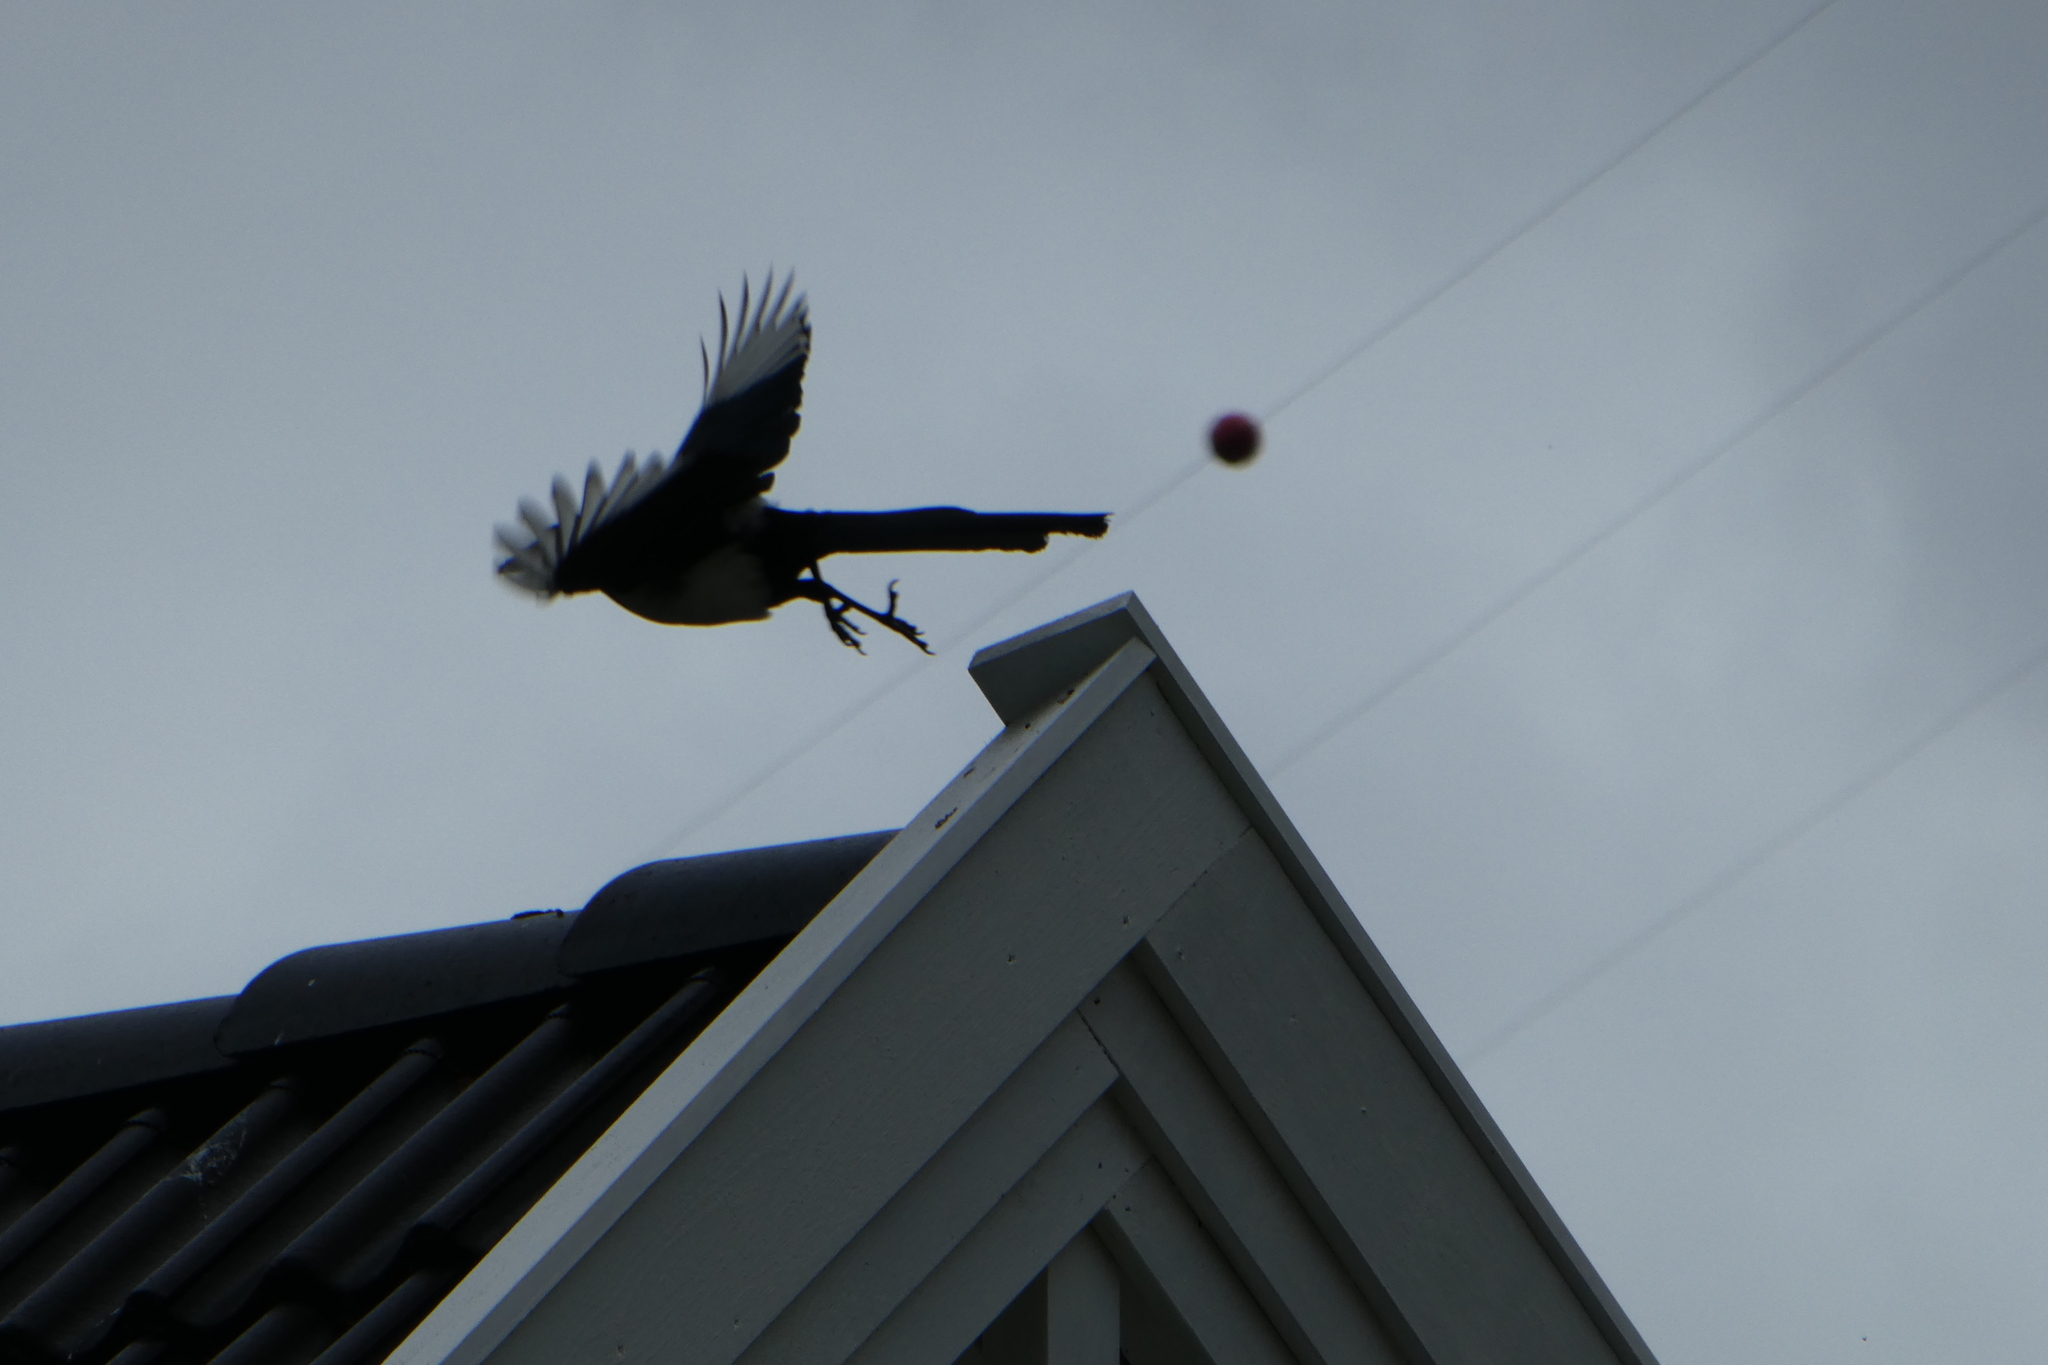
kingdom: Animalia
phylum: Chordata
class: Aves
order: Passeriformes
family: Corvidae
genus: Pica
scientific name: Pica pica
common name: Eurasian magpie
